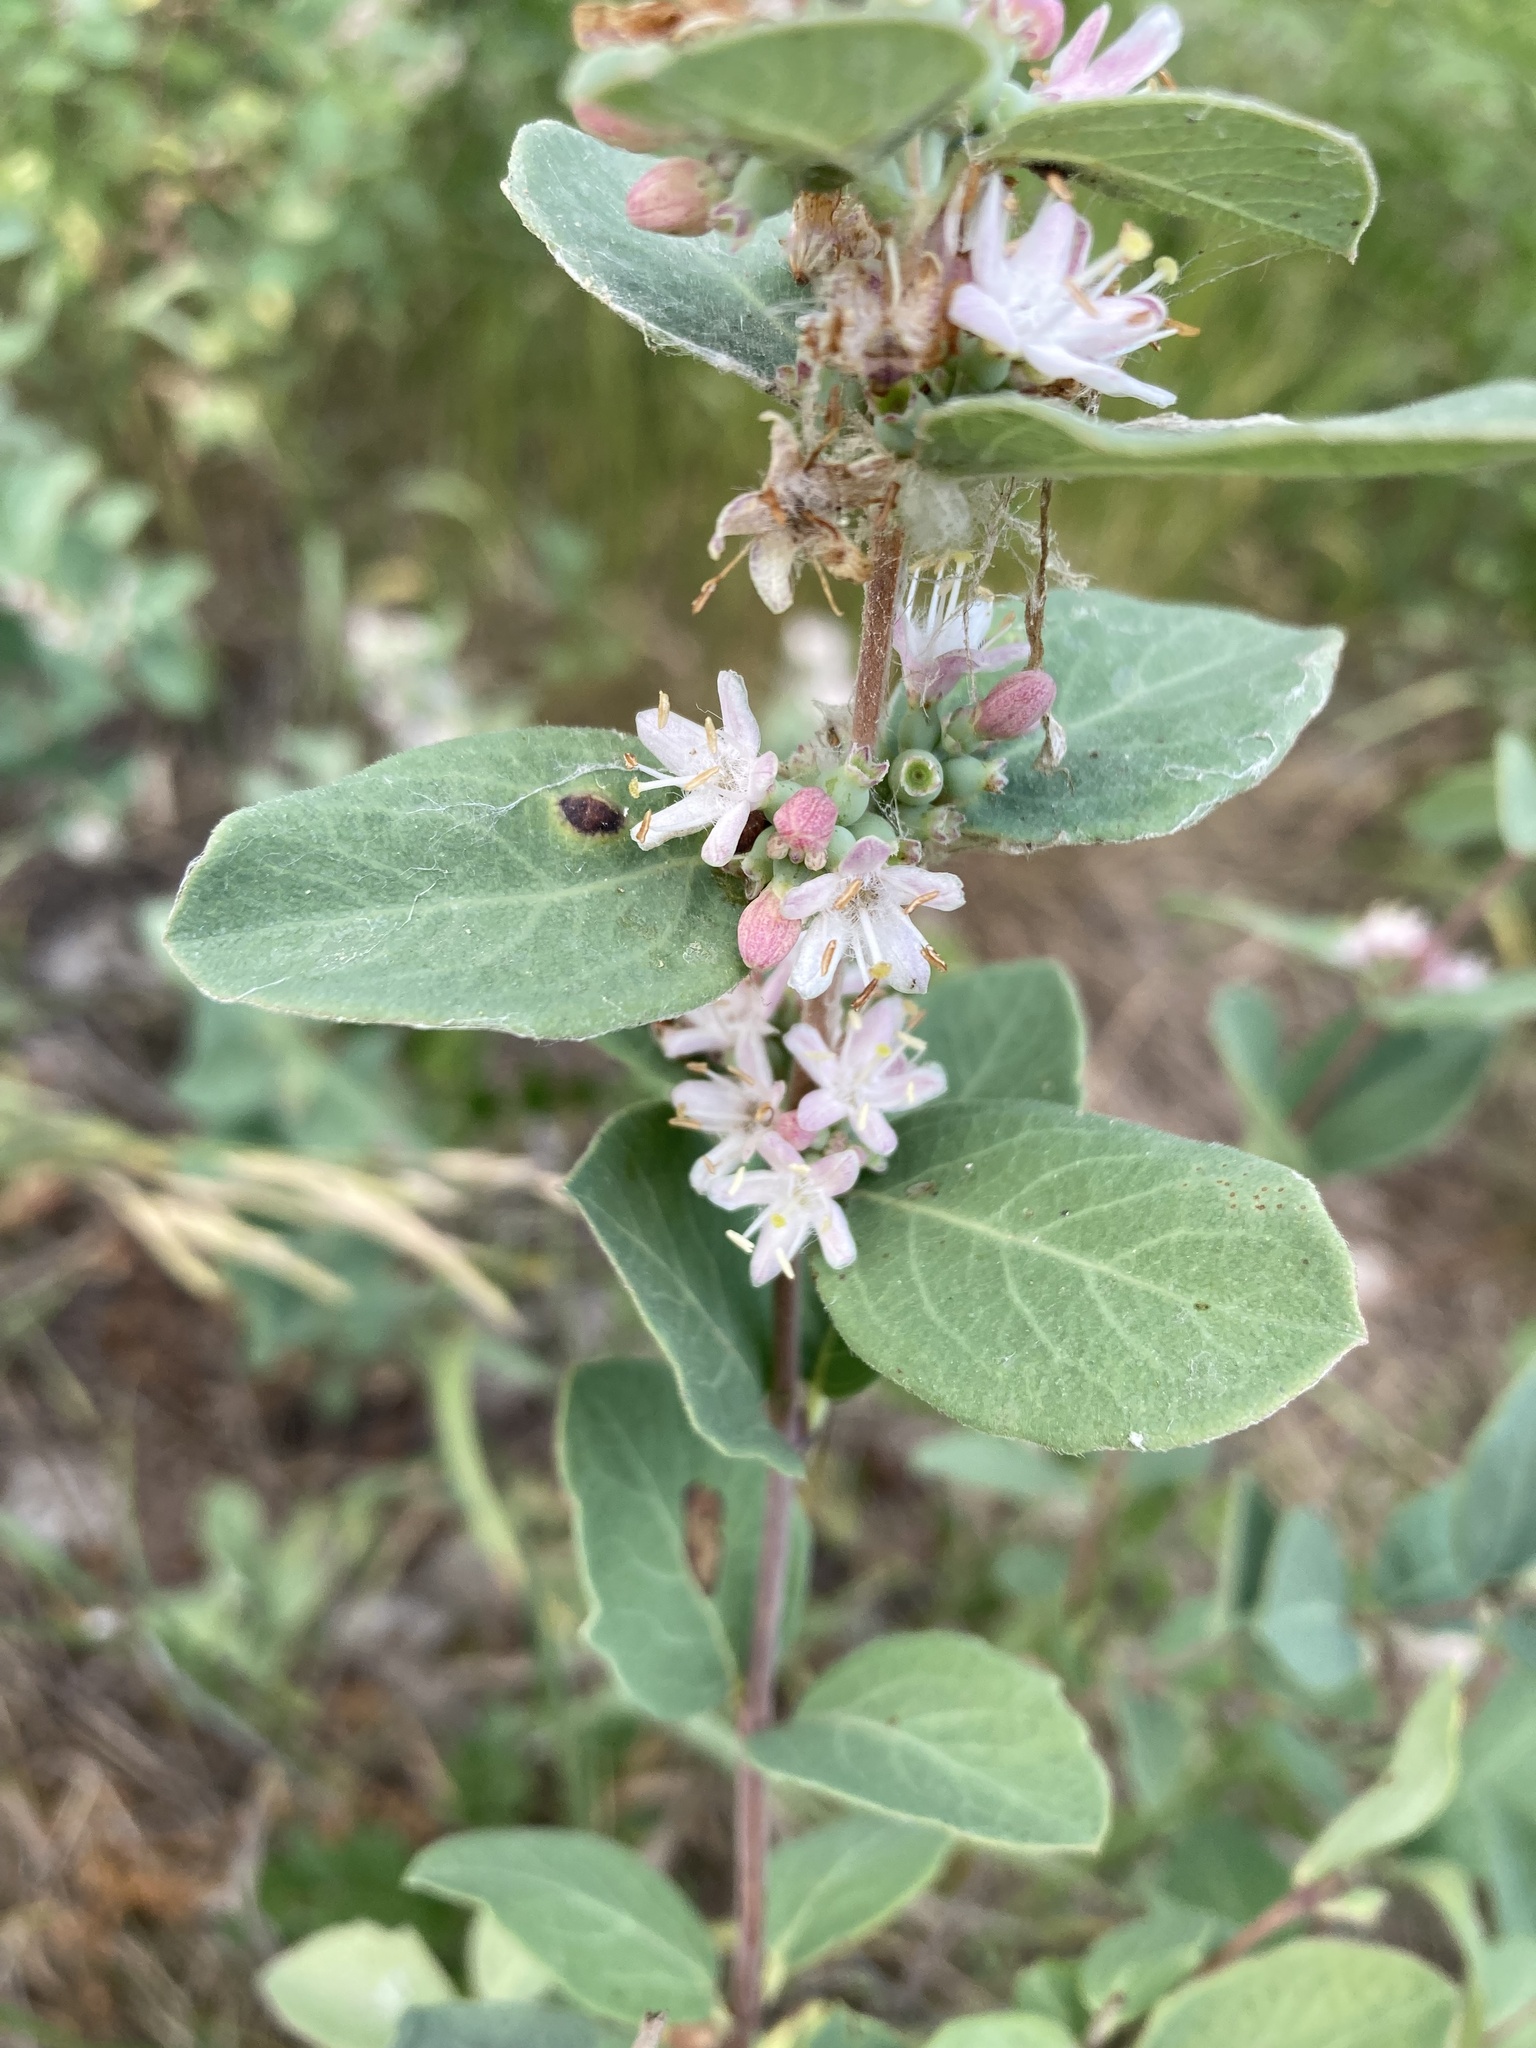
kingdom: Plantae
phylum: Tracheophyta
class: Magnoliopsida
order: Dipsacales
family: Caprifoliaceae
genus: Symphoricarpos
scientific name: Symphoricarpos occidentalis
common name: Wolfberry
